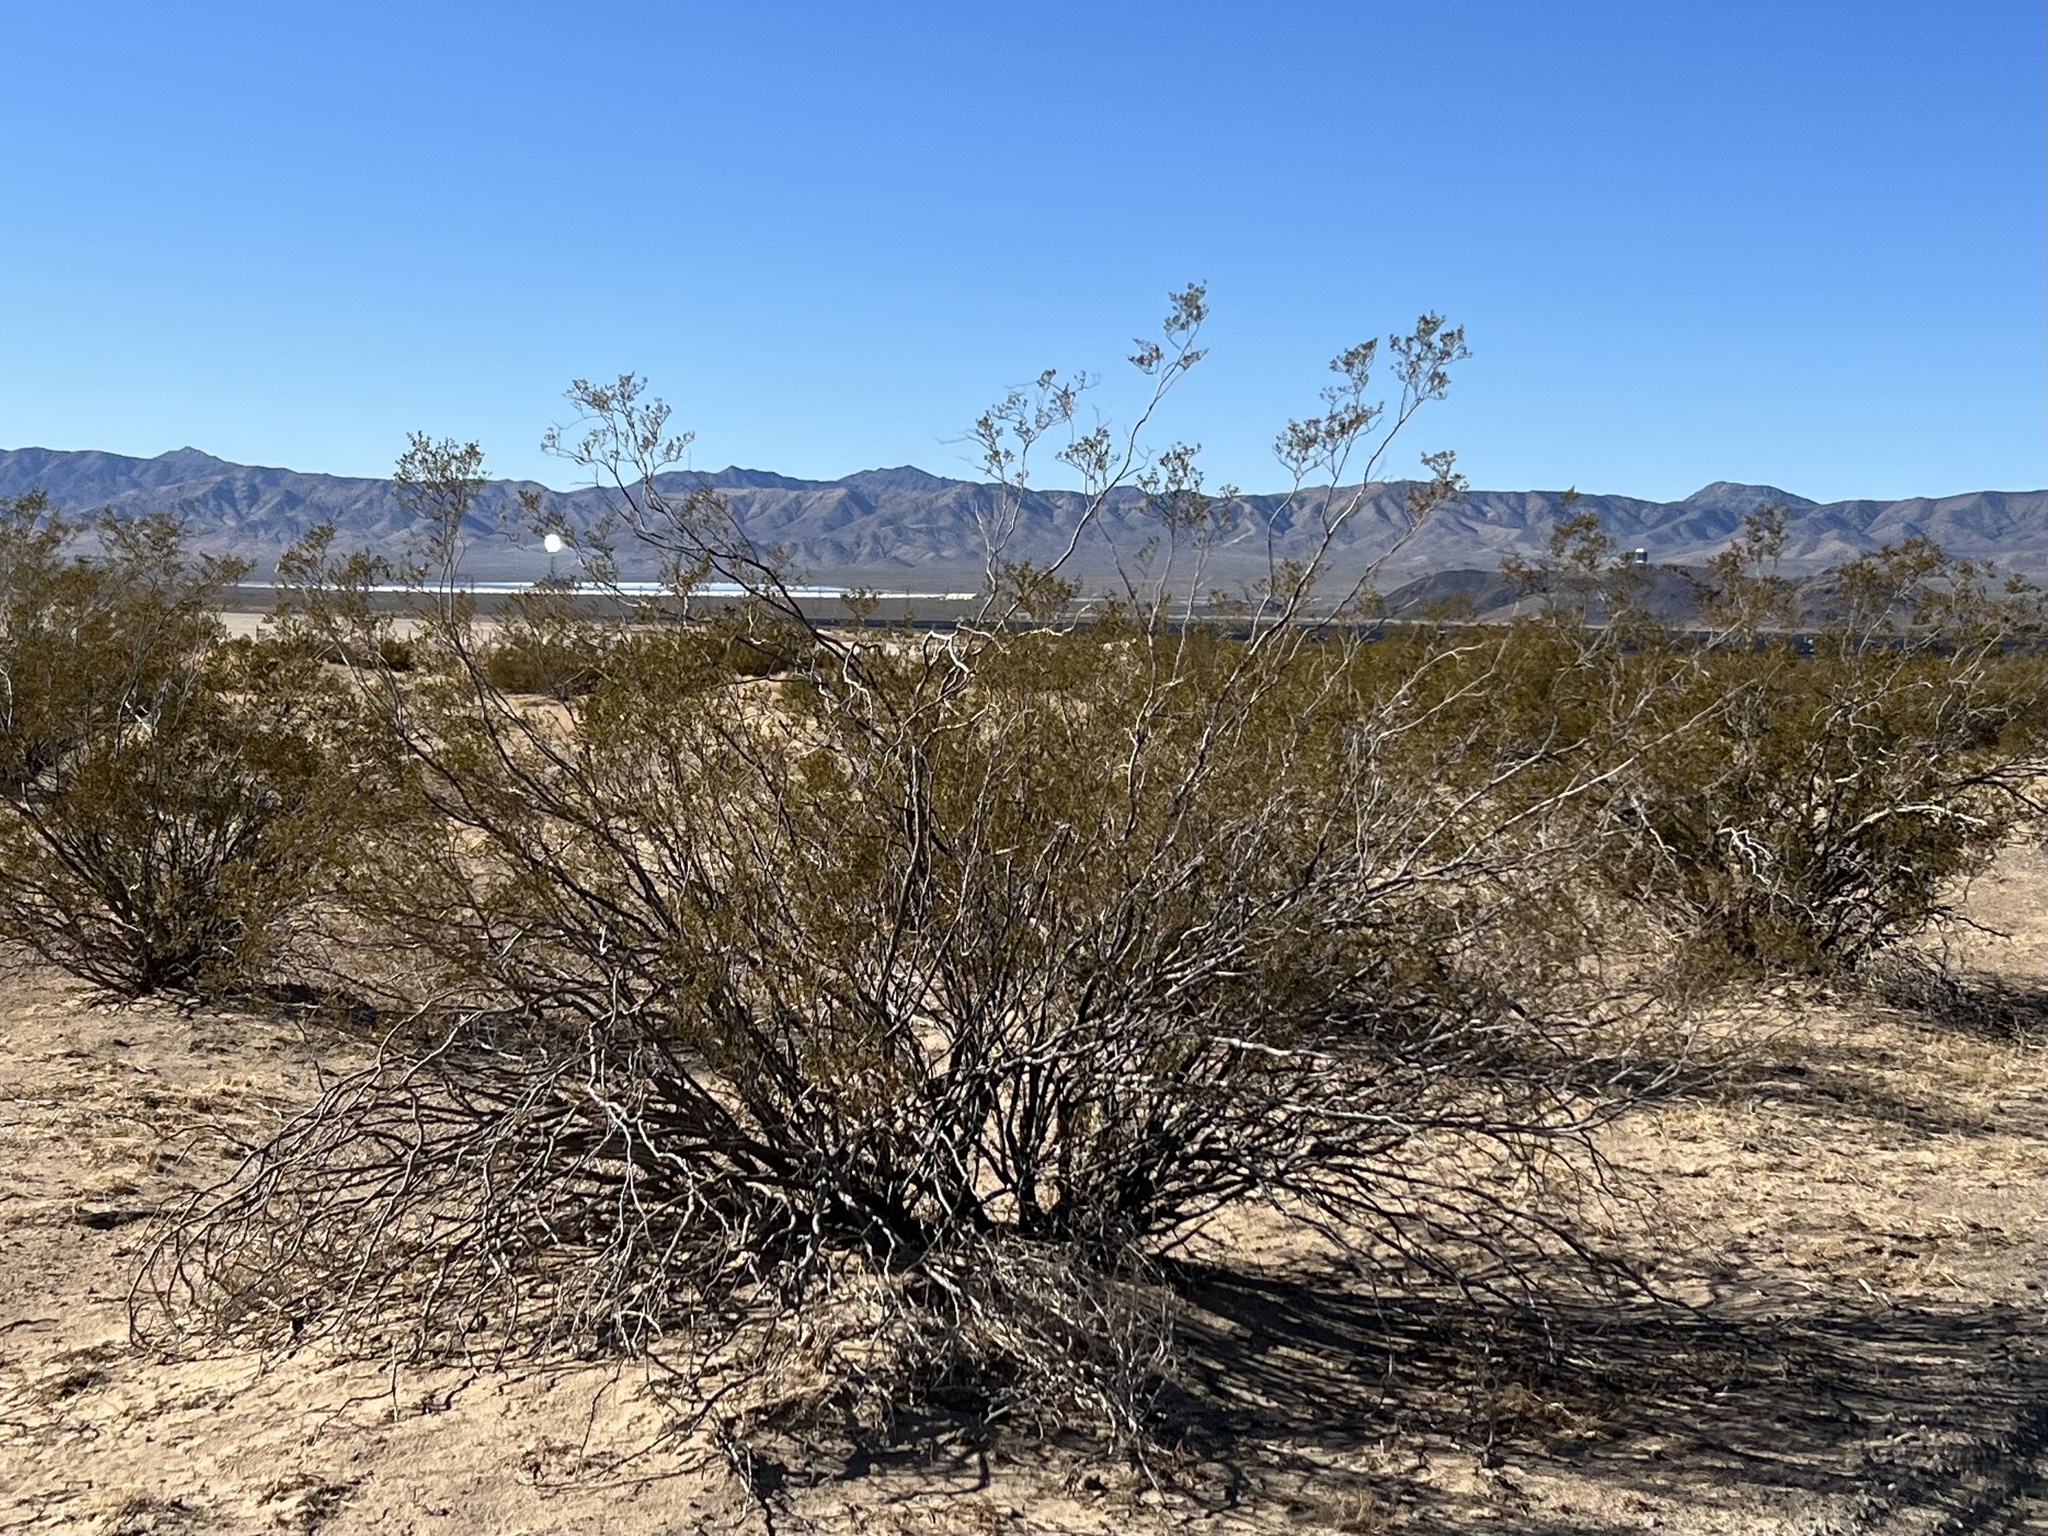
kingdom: Plantae
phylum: Tracheophyta
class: Magnoliopsida
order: Zygophyllales
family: Zygophyllaceae
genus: Larrea
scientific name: Larrea tridentata
